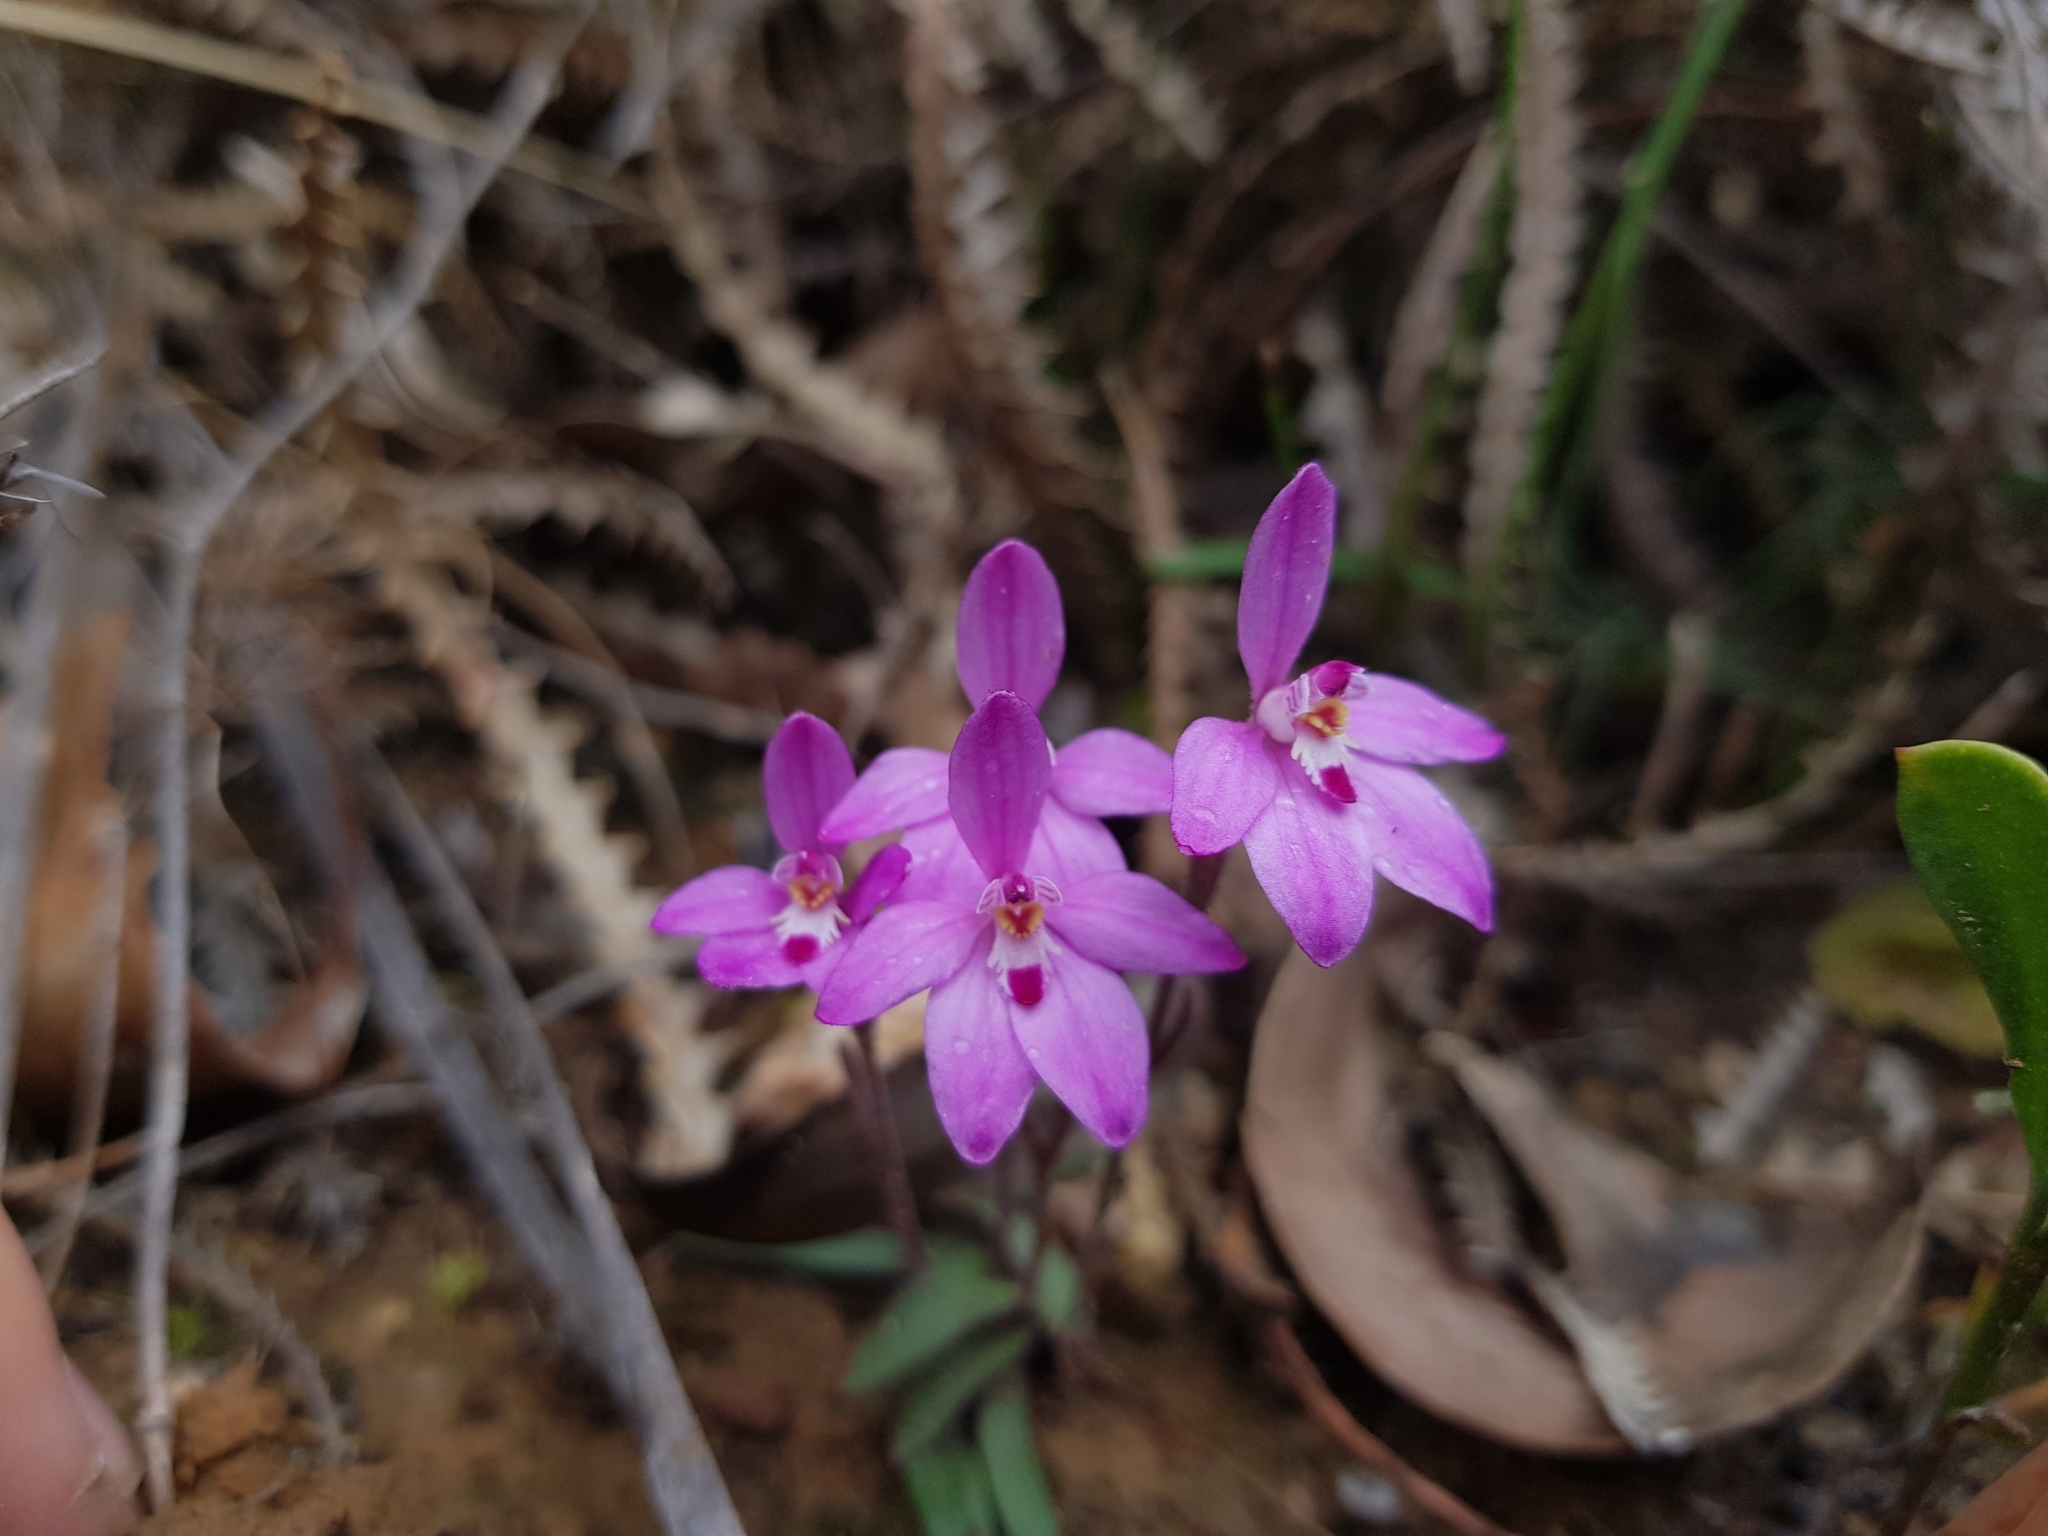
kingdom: Plantae
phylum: Tracheophyta
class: Liliopsida
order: Asparagales
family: Orchidaceae
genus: Caladenia
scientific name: Caladenia reptans
